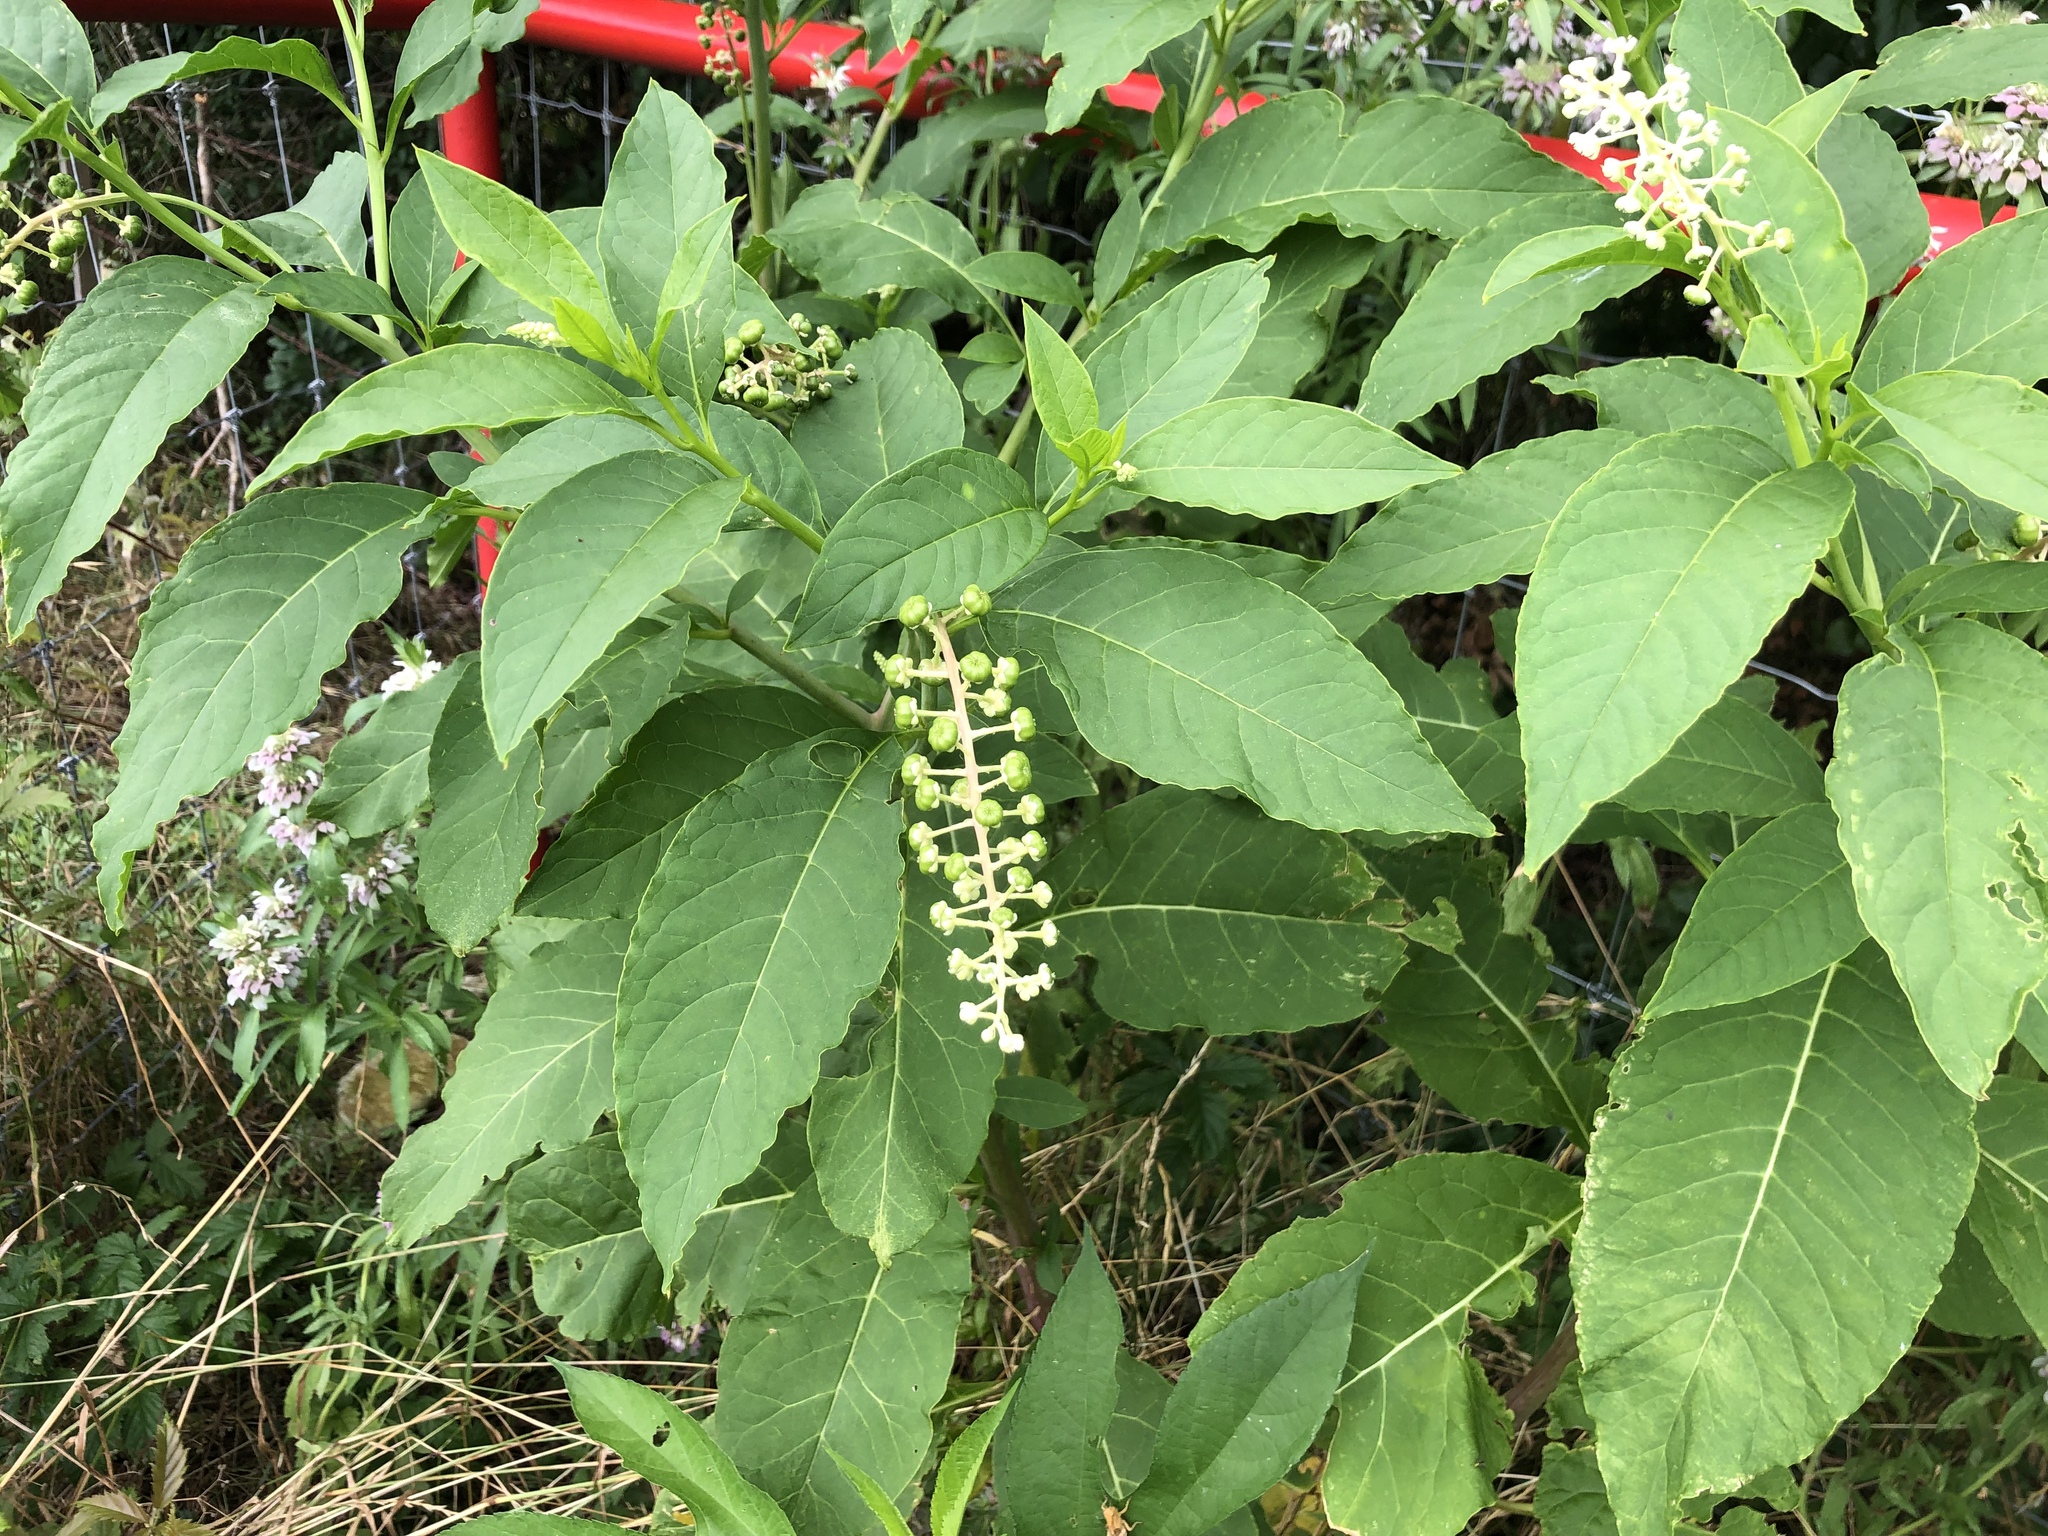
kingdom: Plantae
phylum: Tracheophyta
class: Magnoliopsida
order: Caryophyllales
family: Phytolaccaceae
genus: Phytolacca
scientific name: Phytolacca americana
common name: American pokeweed
